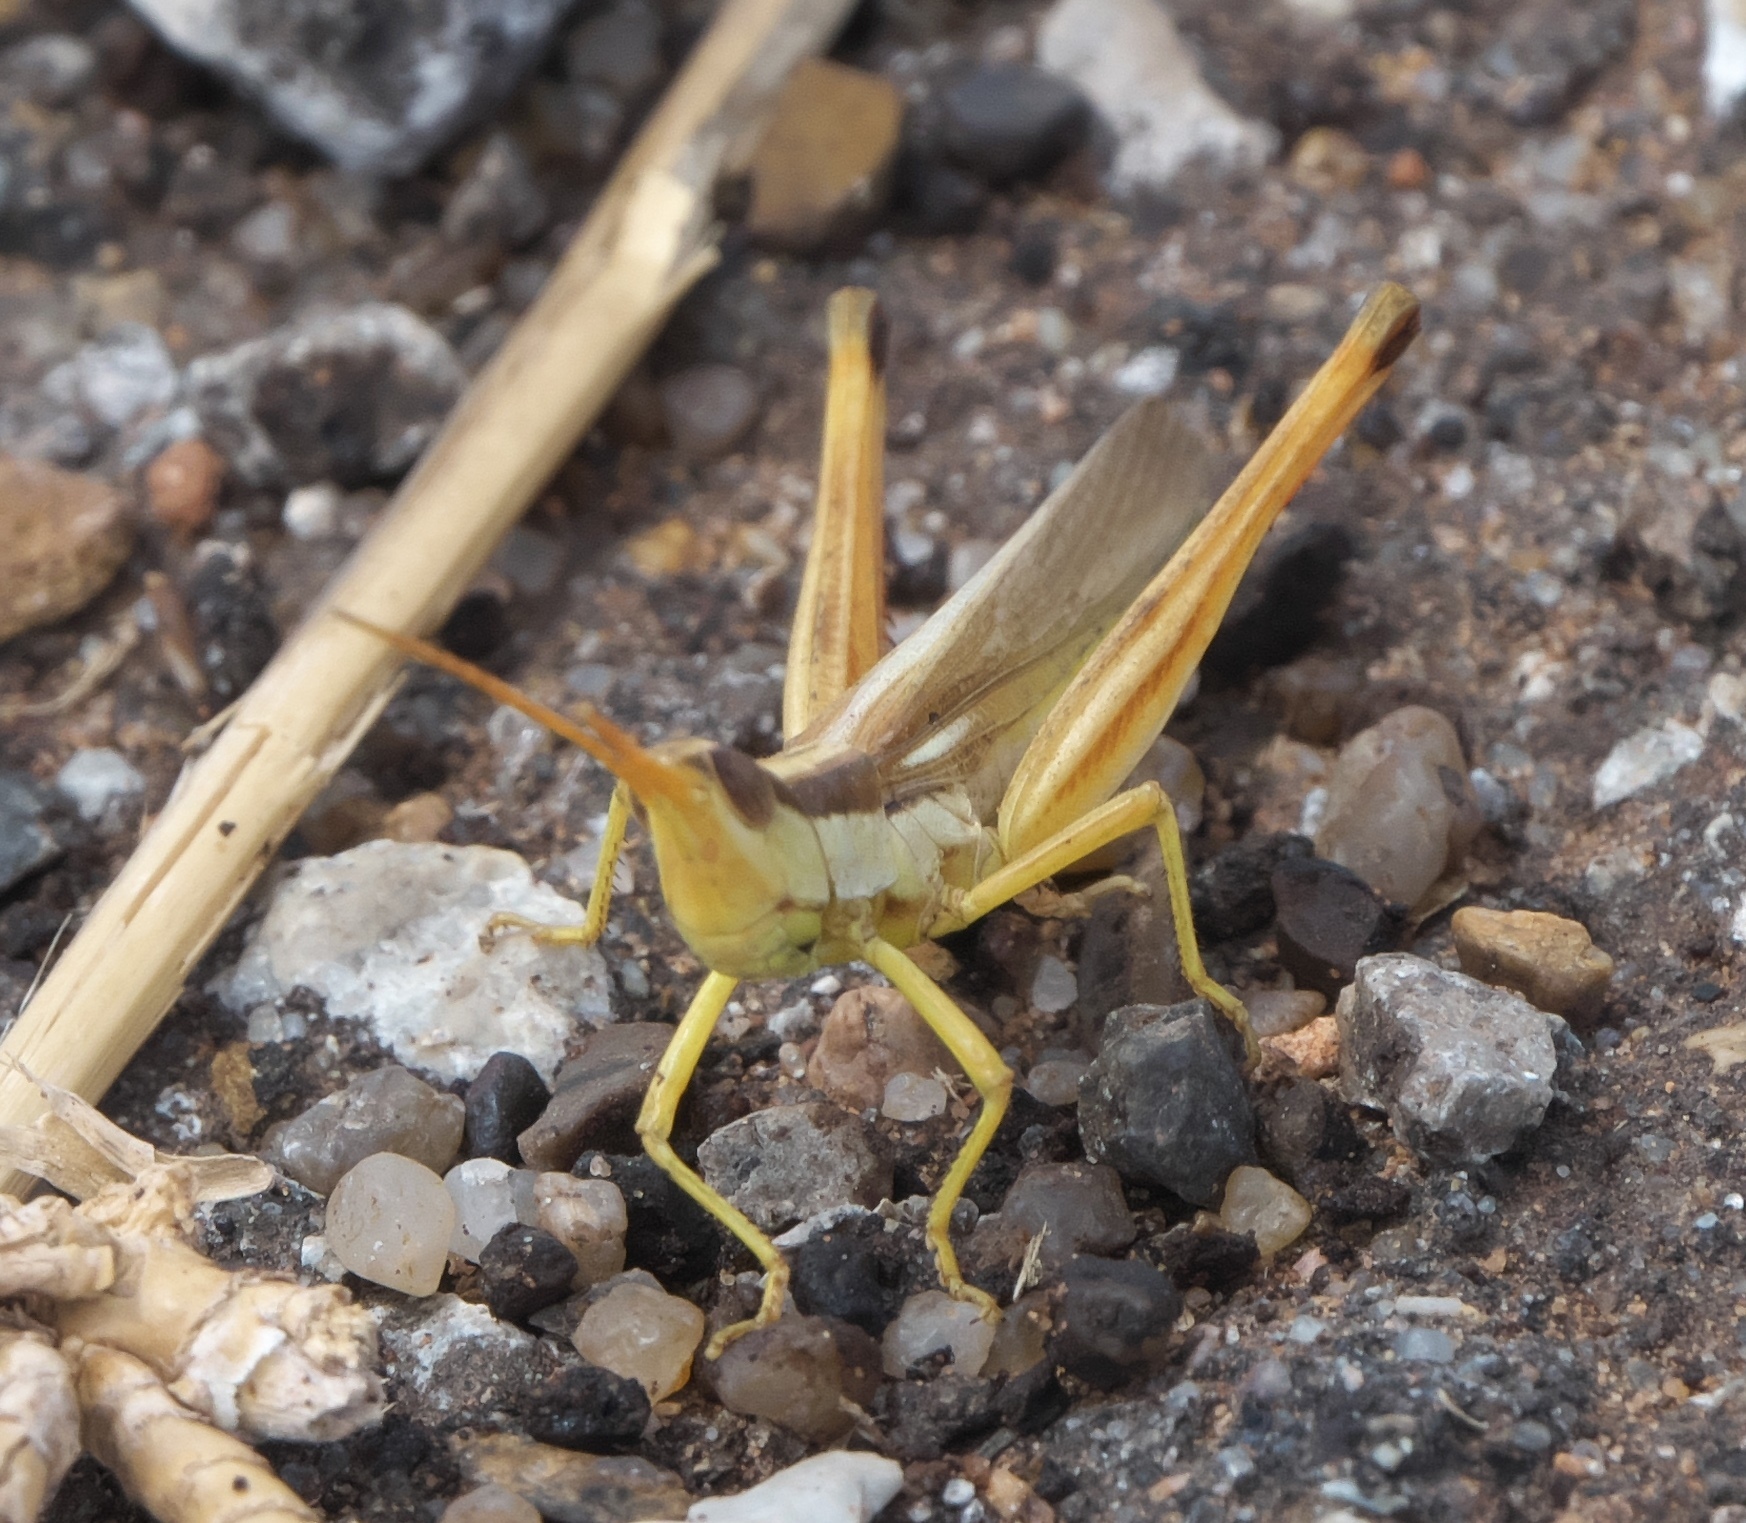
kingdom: Animalia
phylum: Arthropoda
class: Insecta
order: Orthoptera
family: Acrididae
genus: Mermiria
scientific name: Mermiria bivittata
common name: Two-striped mermiria grasshopper
